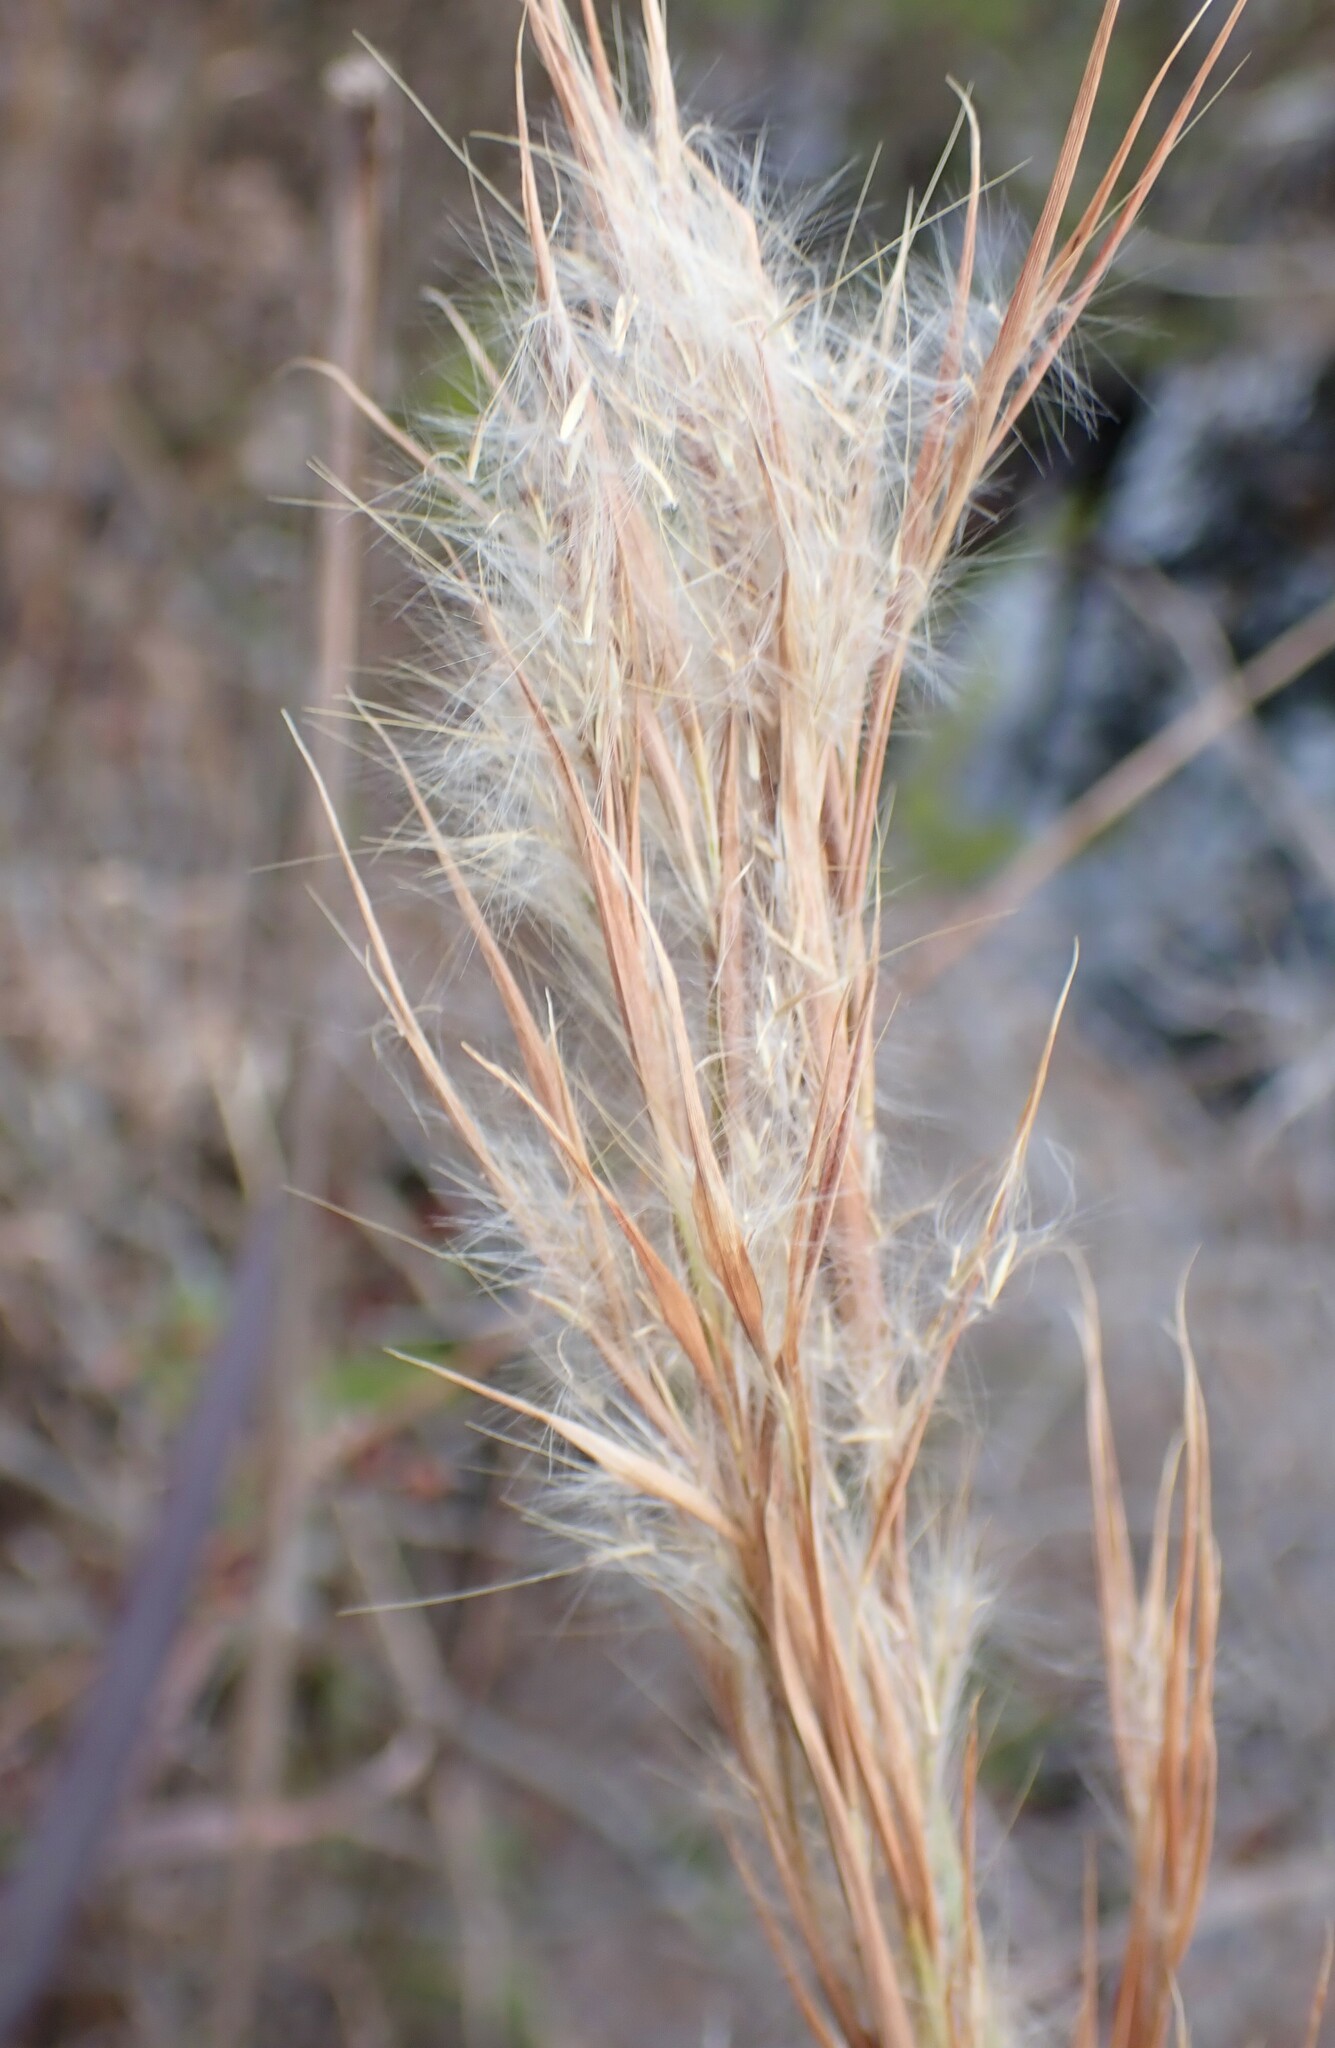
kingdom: Plantae
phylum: Tracheophyta
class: Liliopsida
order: Poales
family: Poaceae
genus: Andropogon
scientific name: Andropogon tenuispatheus
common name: Bushy bluestem
